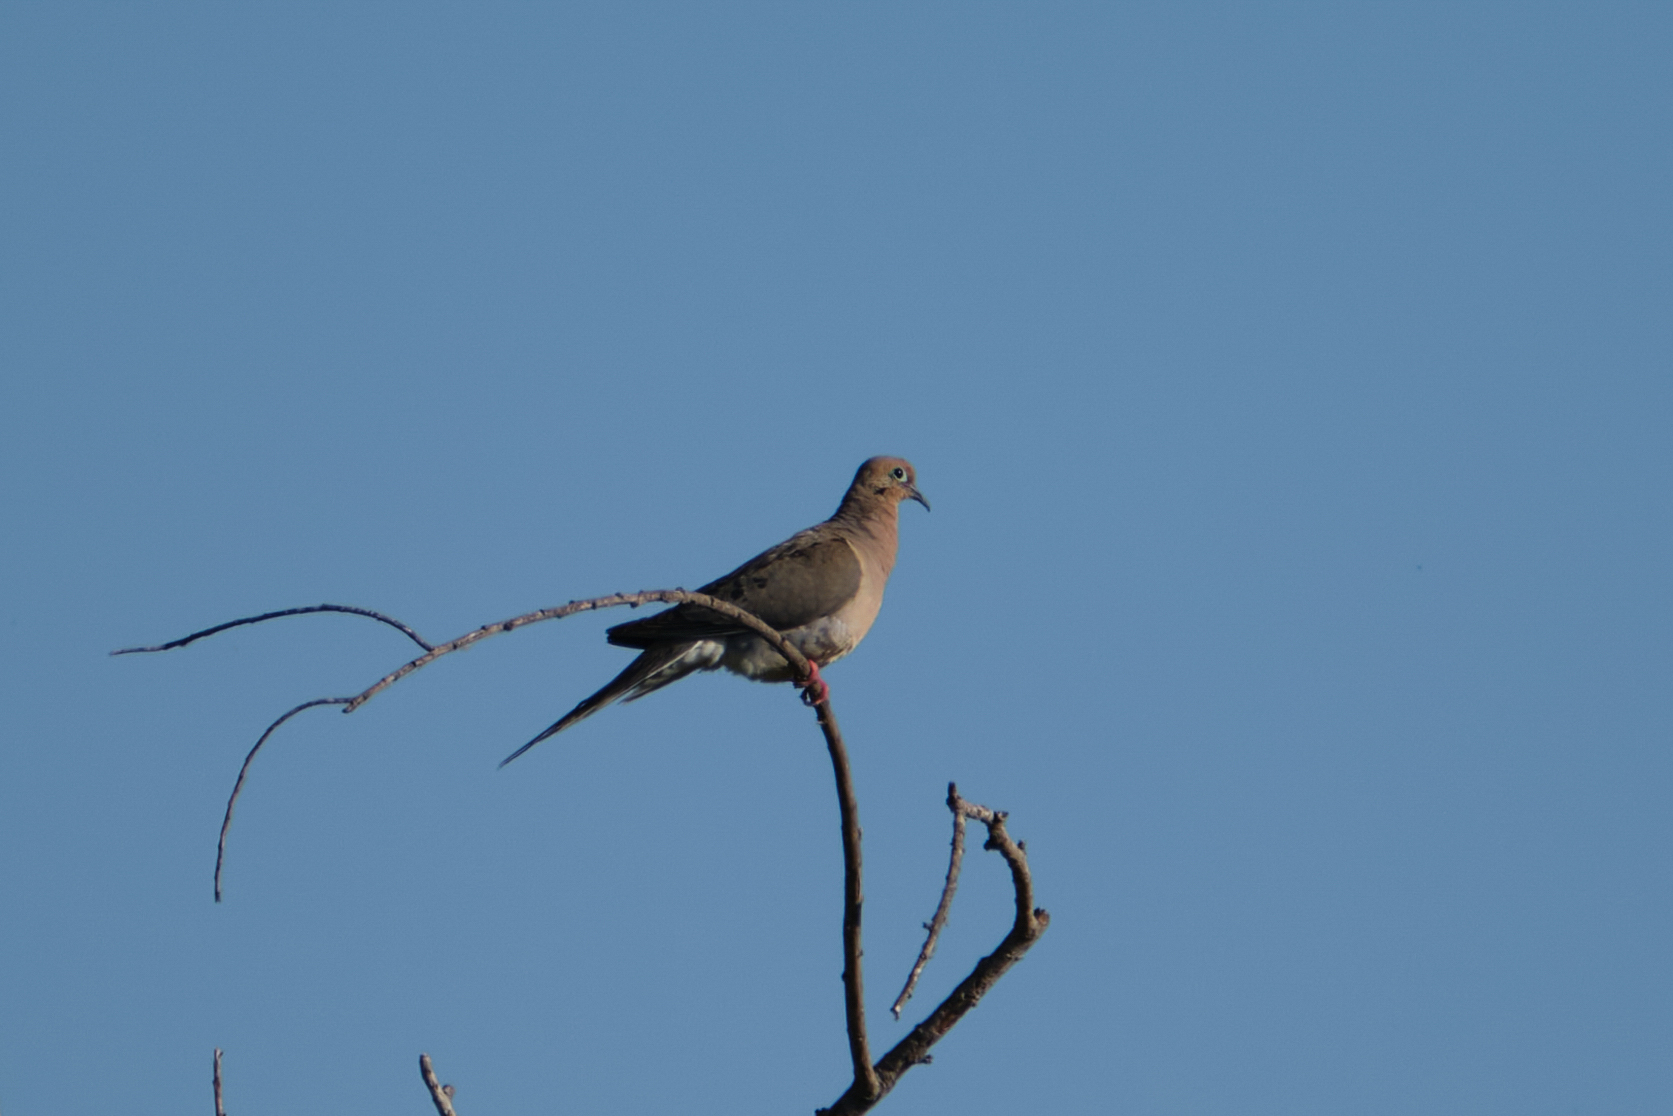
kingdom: Animalia
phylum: Chordata
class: Aves
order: Columbiformes
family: Columbidae
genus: Zenaida
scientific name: Zenaida macroura
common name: Mourning dove
